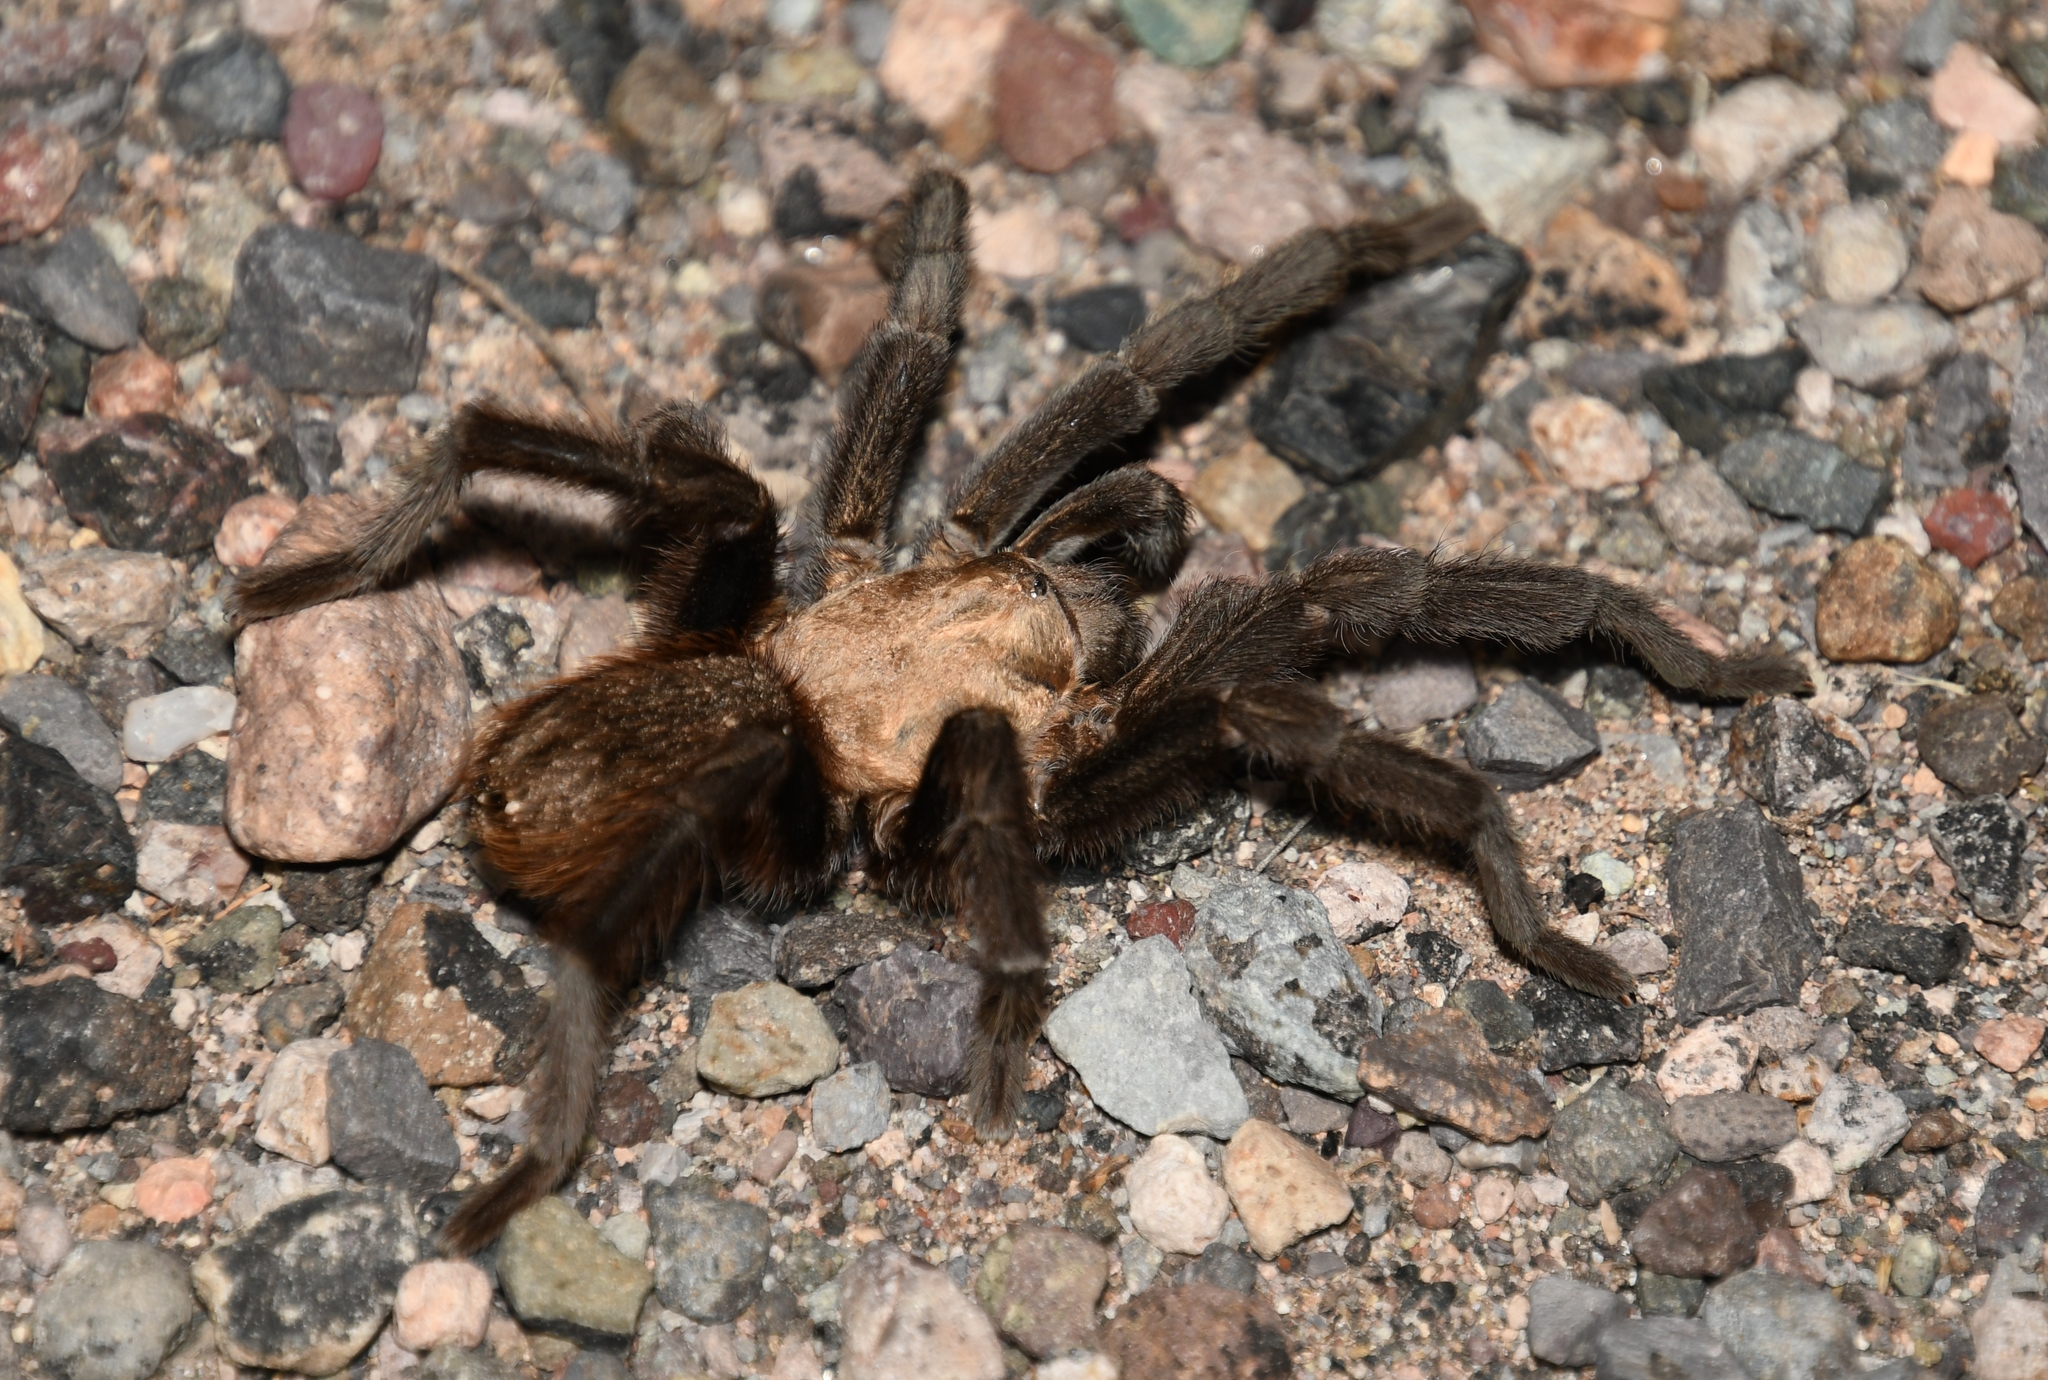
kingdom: Animalia
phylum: Arthropoda
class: Arachnida
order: Araneae
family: Theraphosidae
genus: Aphonopelma
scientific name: Aphonopelma hentzi
